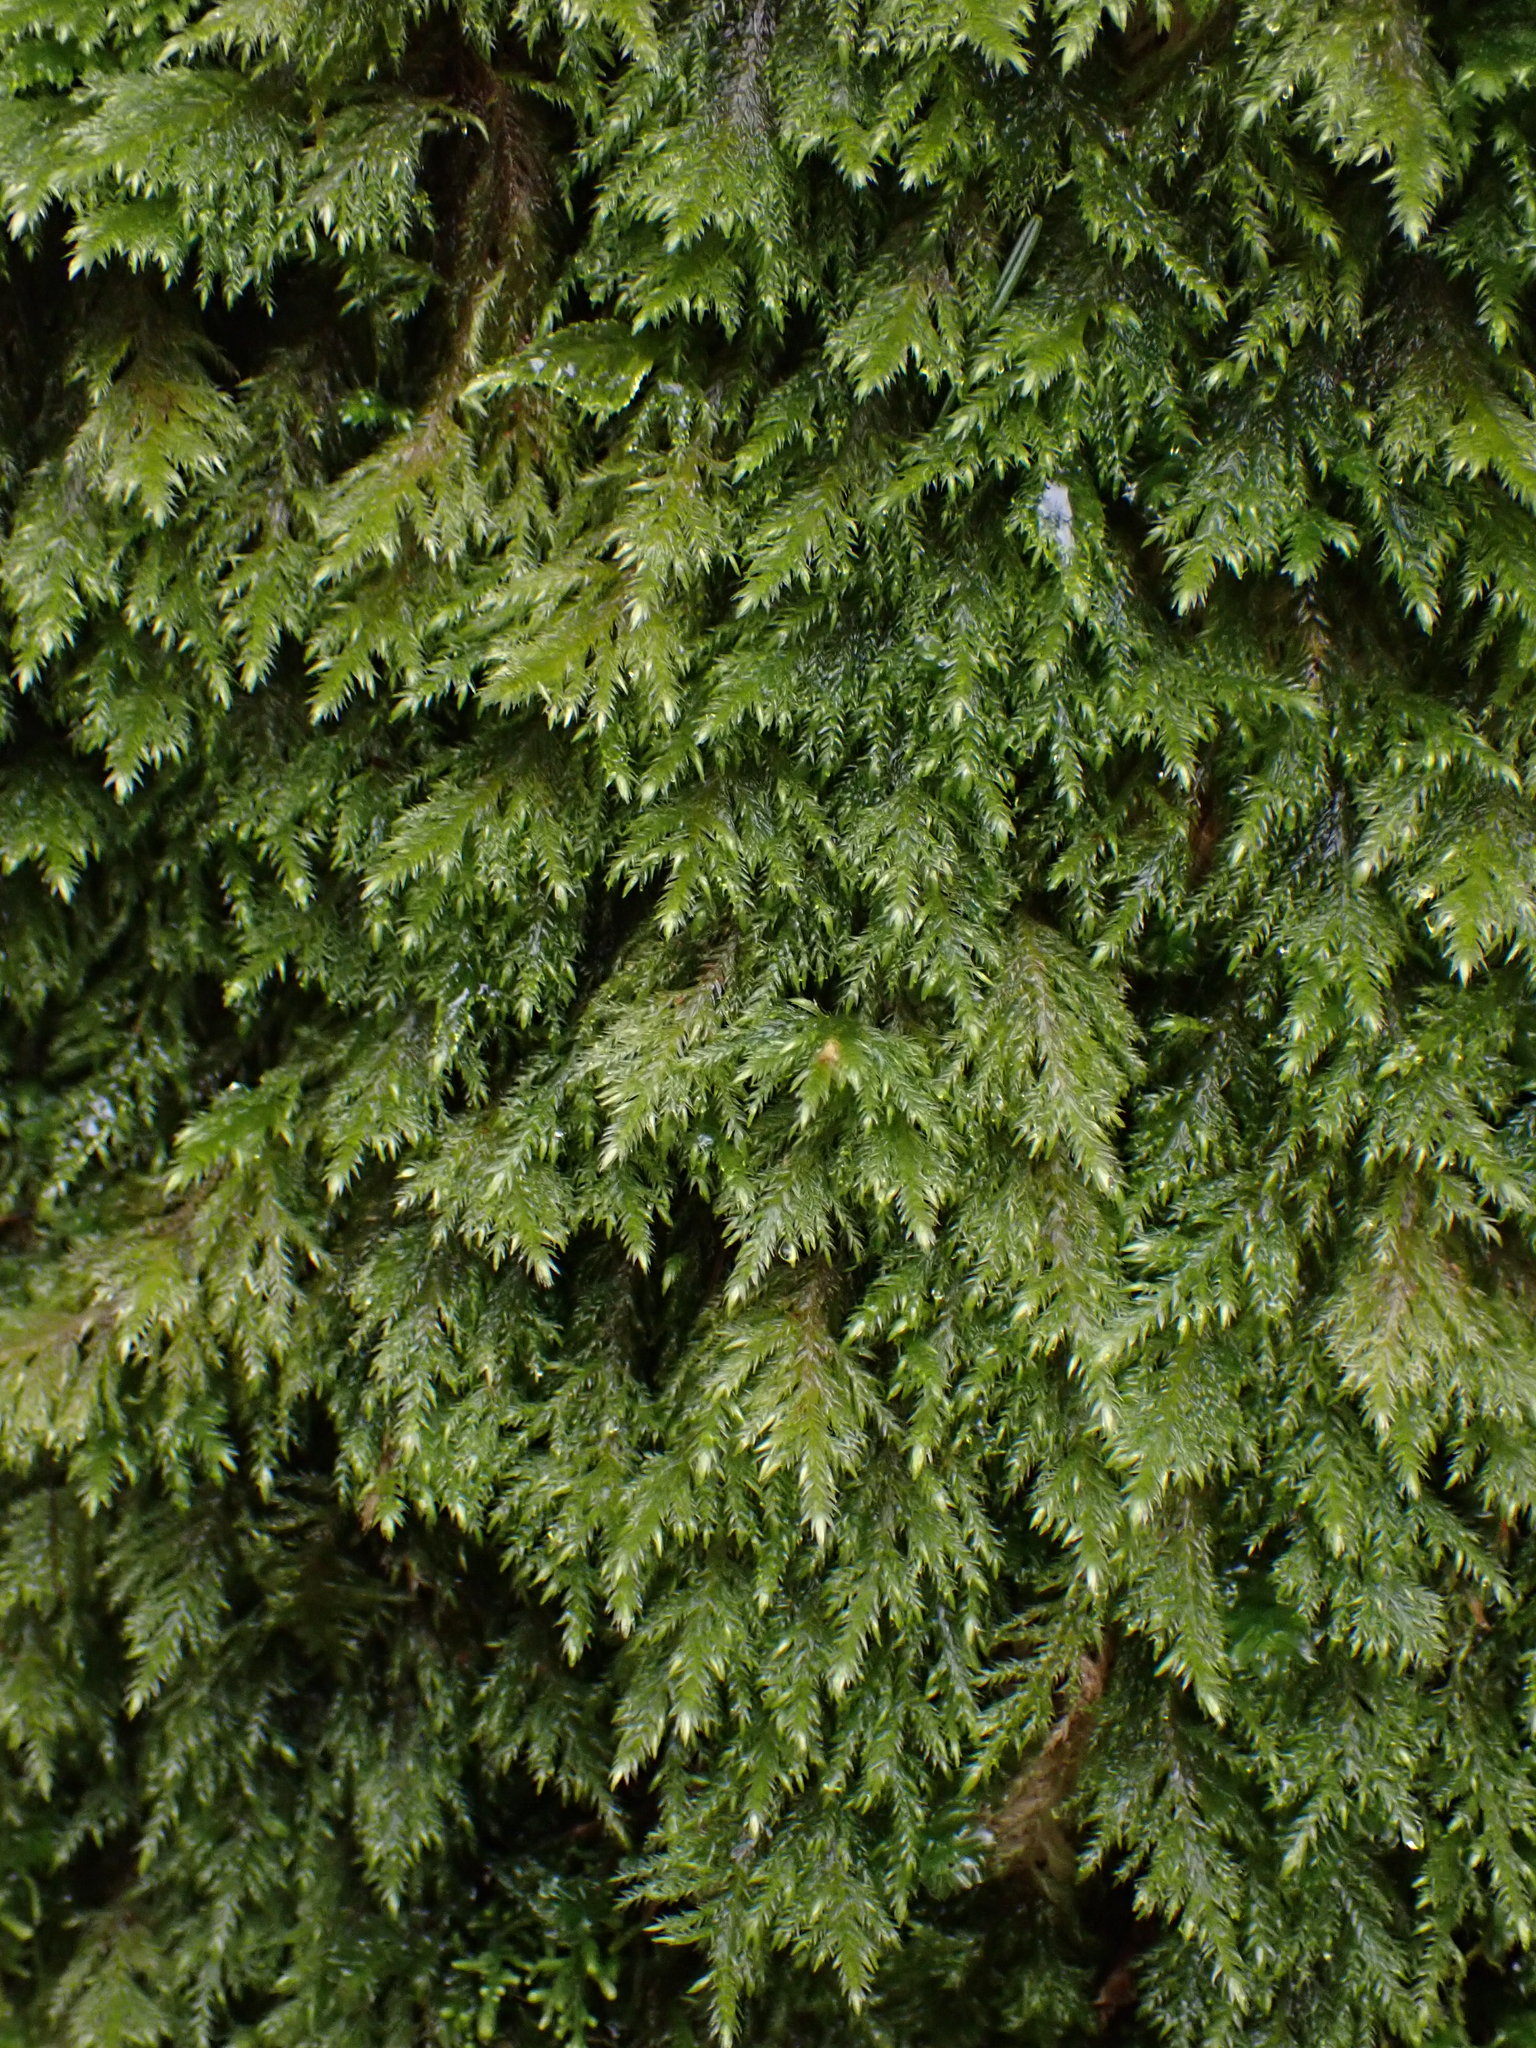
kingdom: Plantae
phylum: Bryophyta
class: Bryopsida
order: Hypnales
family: Lembophyllaceae
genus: Pseudisothecium
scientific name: Pseudisothecium stoloniferum
